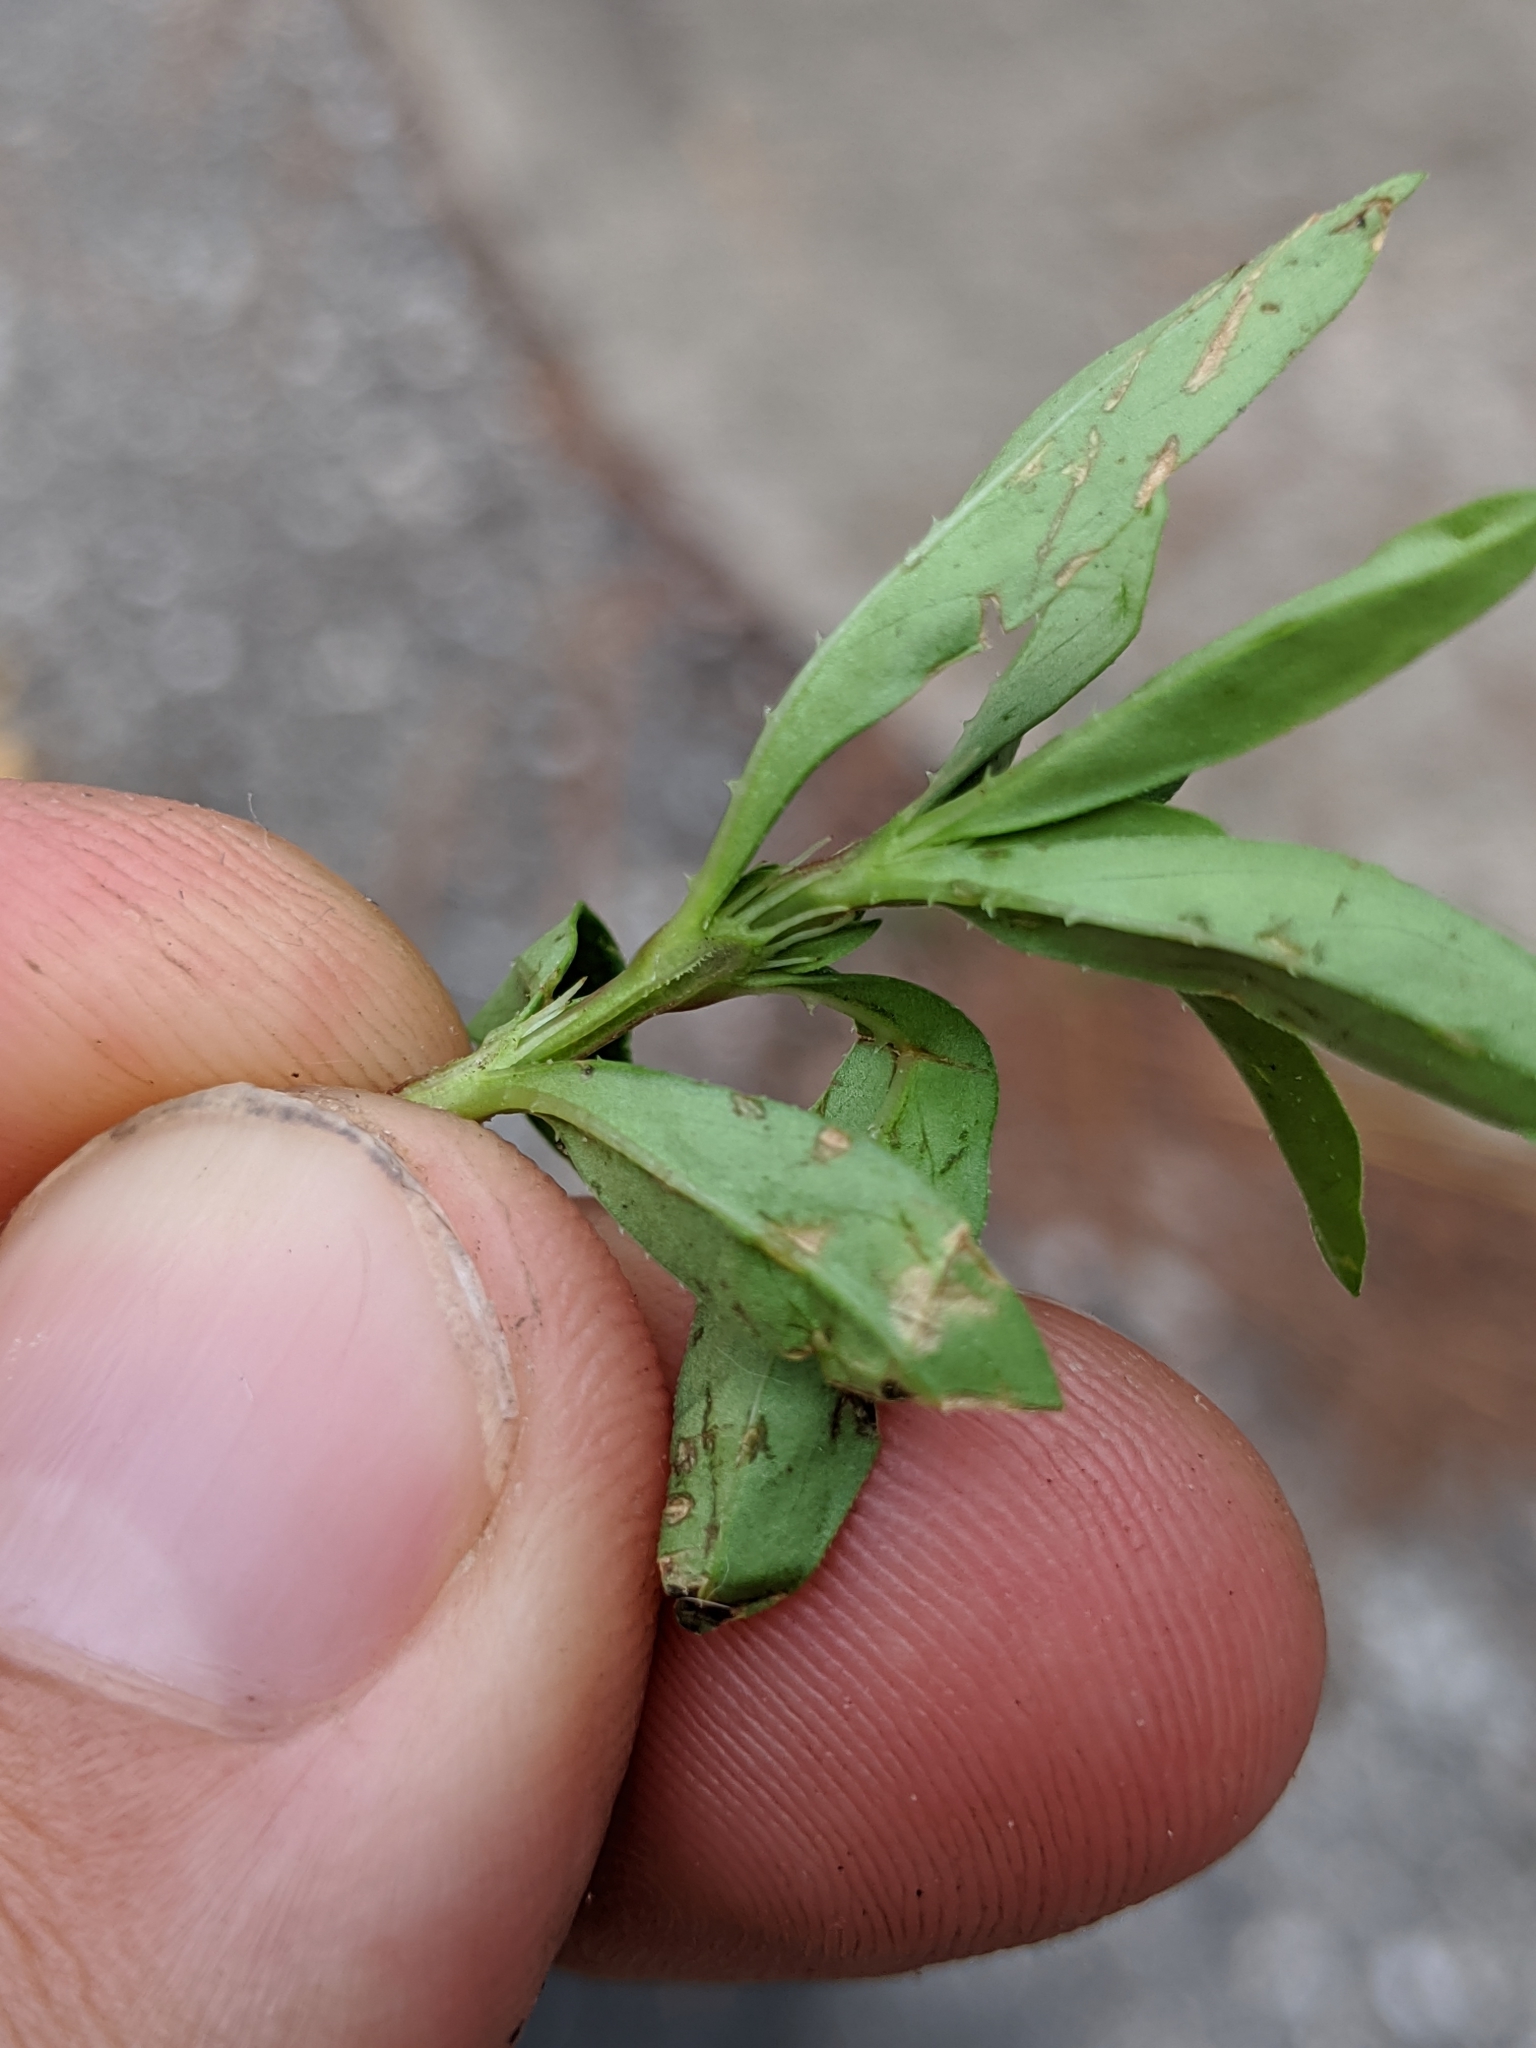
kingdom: Plantae
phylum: Tracheophyta
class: Magnoliopsida
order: Gentianales
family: Rubiaceae
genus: Spermacoce
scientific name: Spermacoce verticillata
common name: Shrubby false buttonweed
